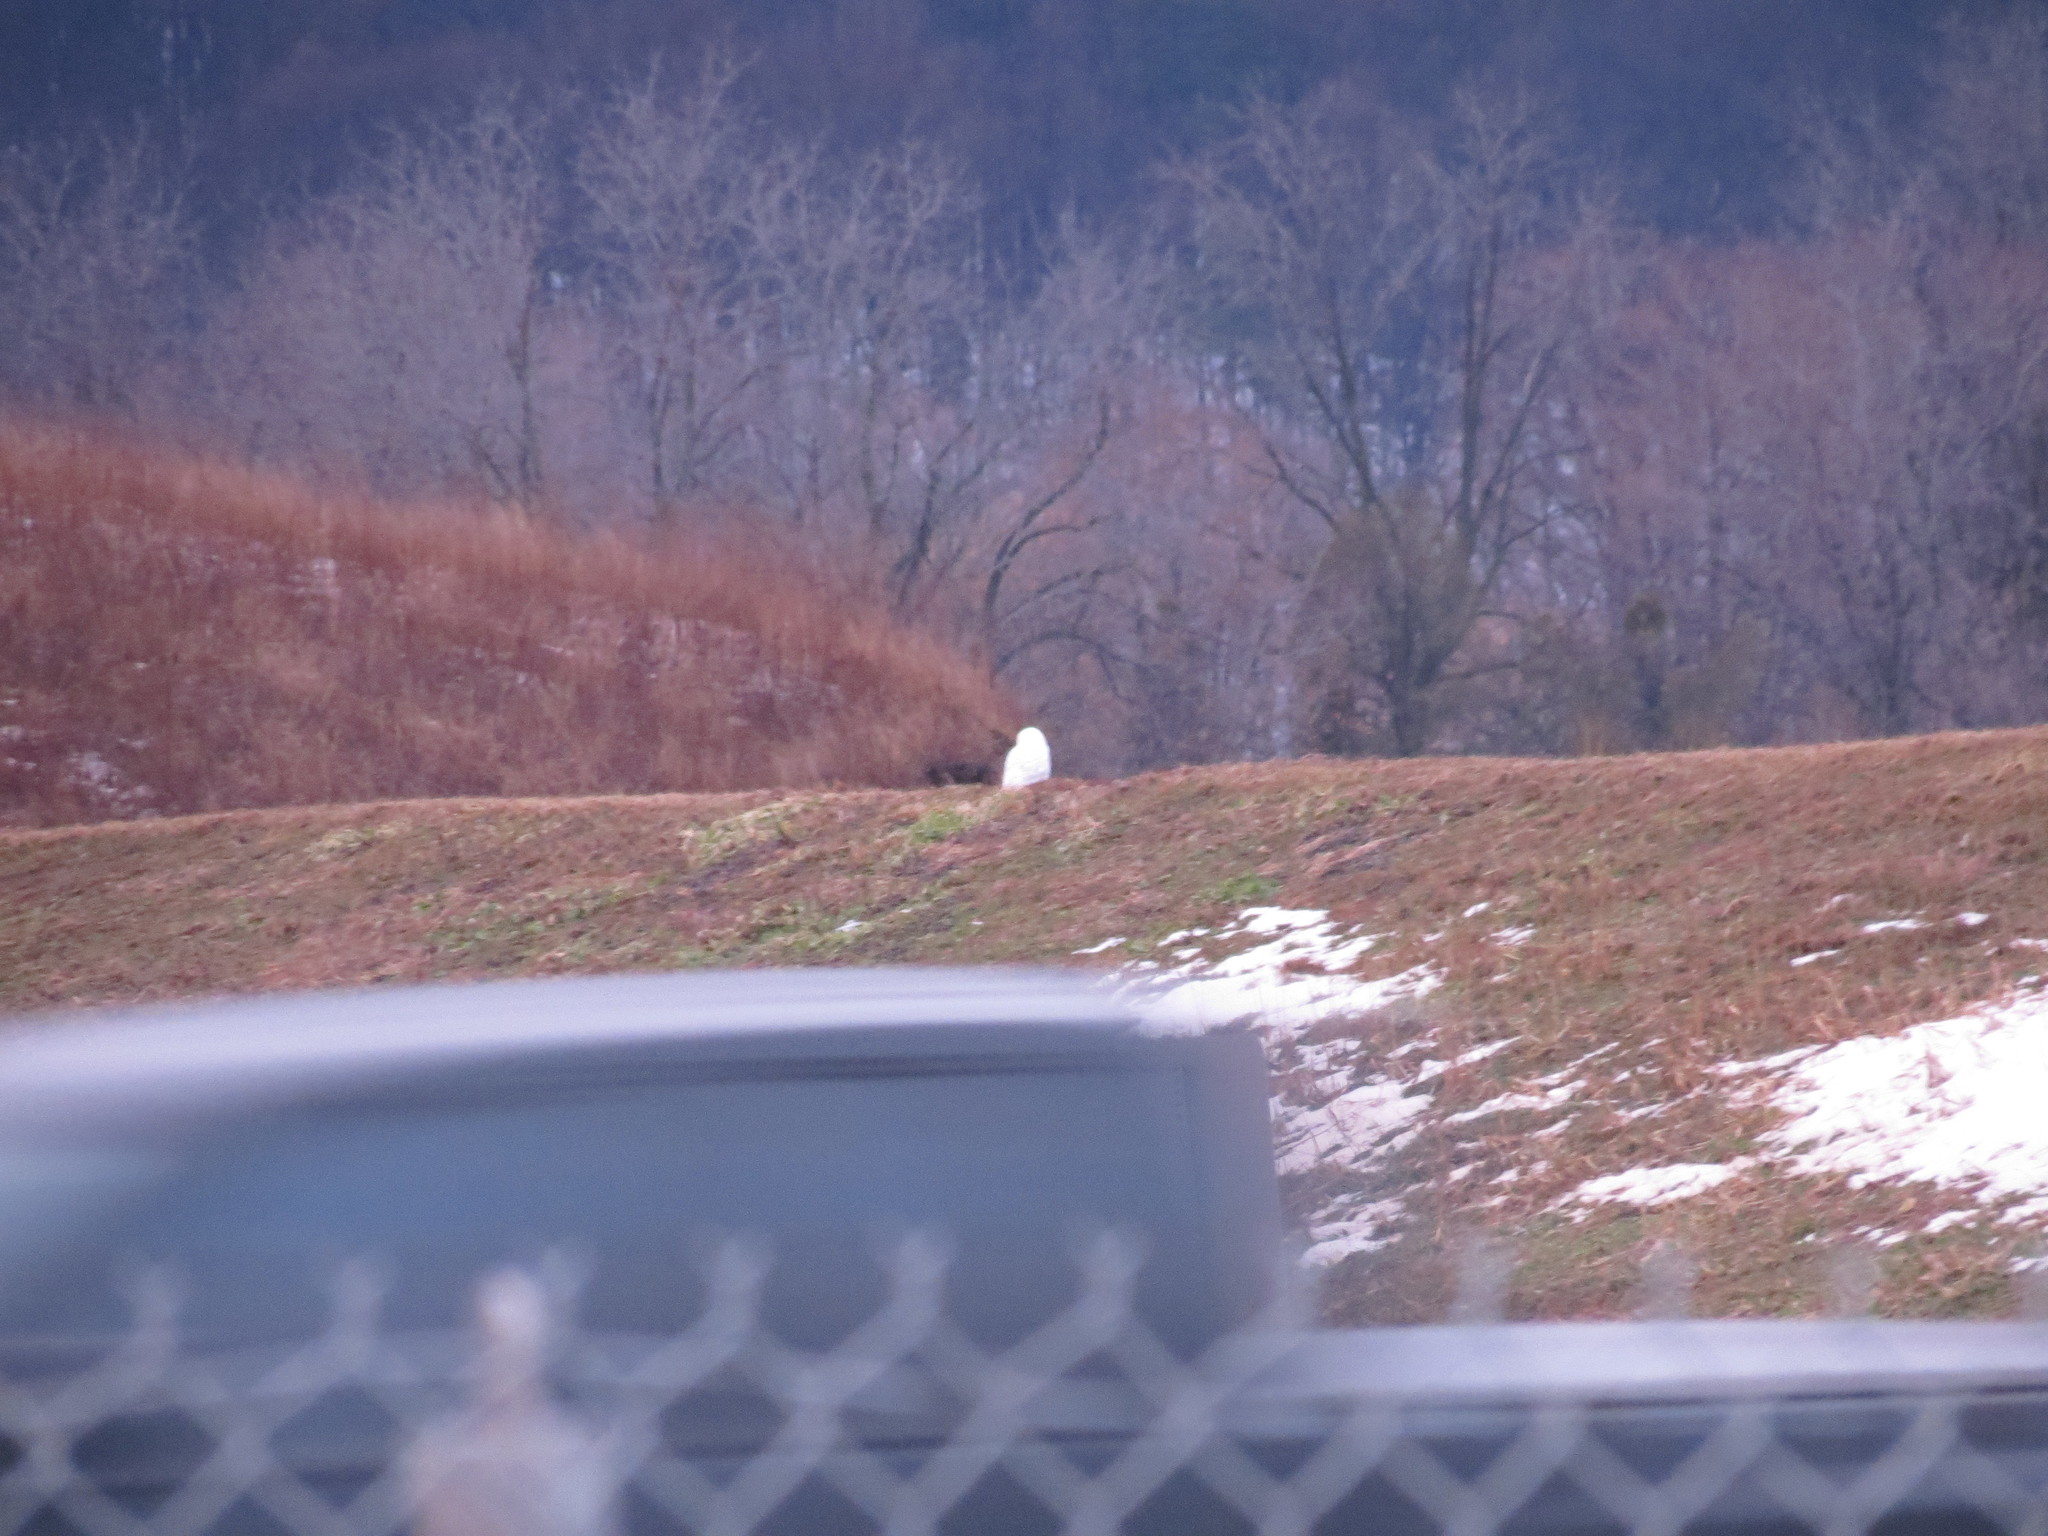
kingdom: Animalia
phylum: Chordata
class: Aves
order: Strigiformes
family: Strigidae
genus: Bubo
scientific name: Bubo scandiacus
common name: Snowy owl
